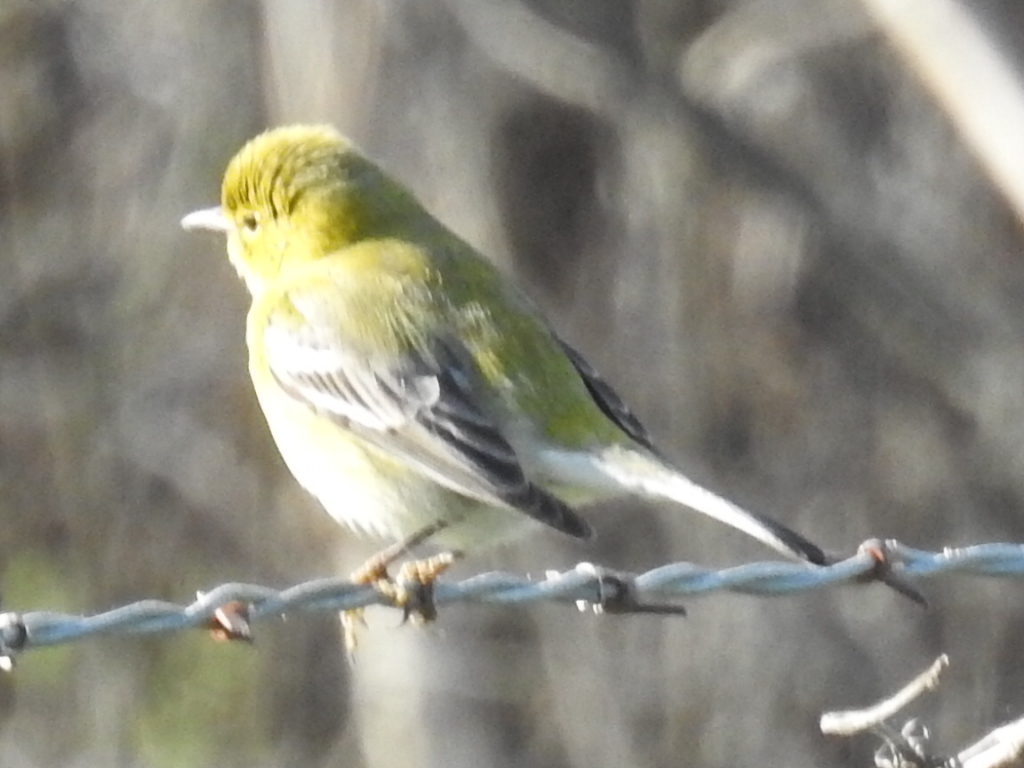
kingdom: Animalia
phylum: Chordata
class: Aves
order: Passeriformes
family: Parulidae
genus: Setophaga
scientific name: Setophaga pinus
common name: Pine warbler
